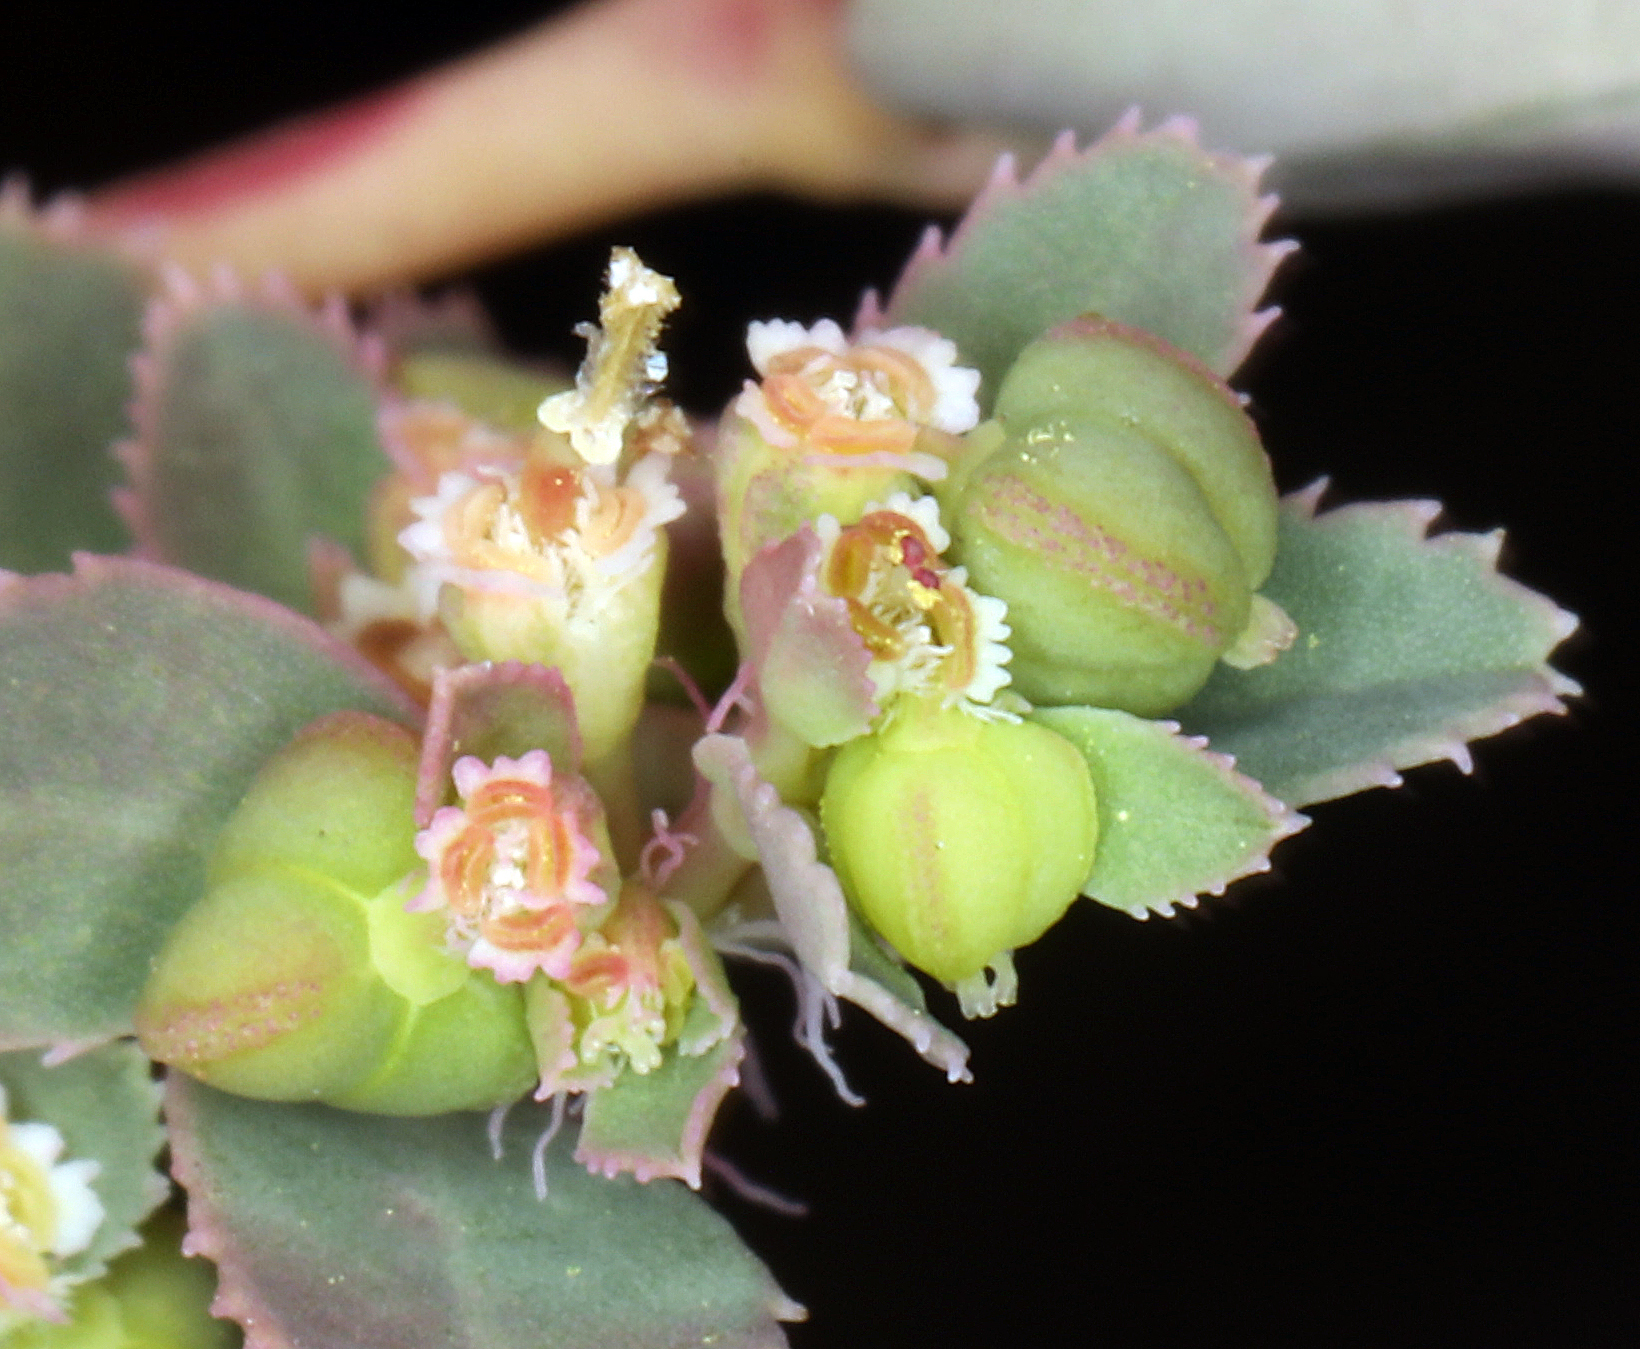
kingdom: Plantae
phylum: Tracheophyta
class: Magnoliopsida
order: Malpighiales
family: Euphorbiaceae
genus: Euphorbia
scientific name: Euphorbia serpillifolia
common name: Thyme-leaf spurge
